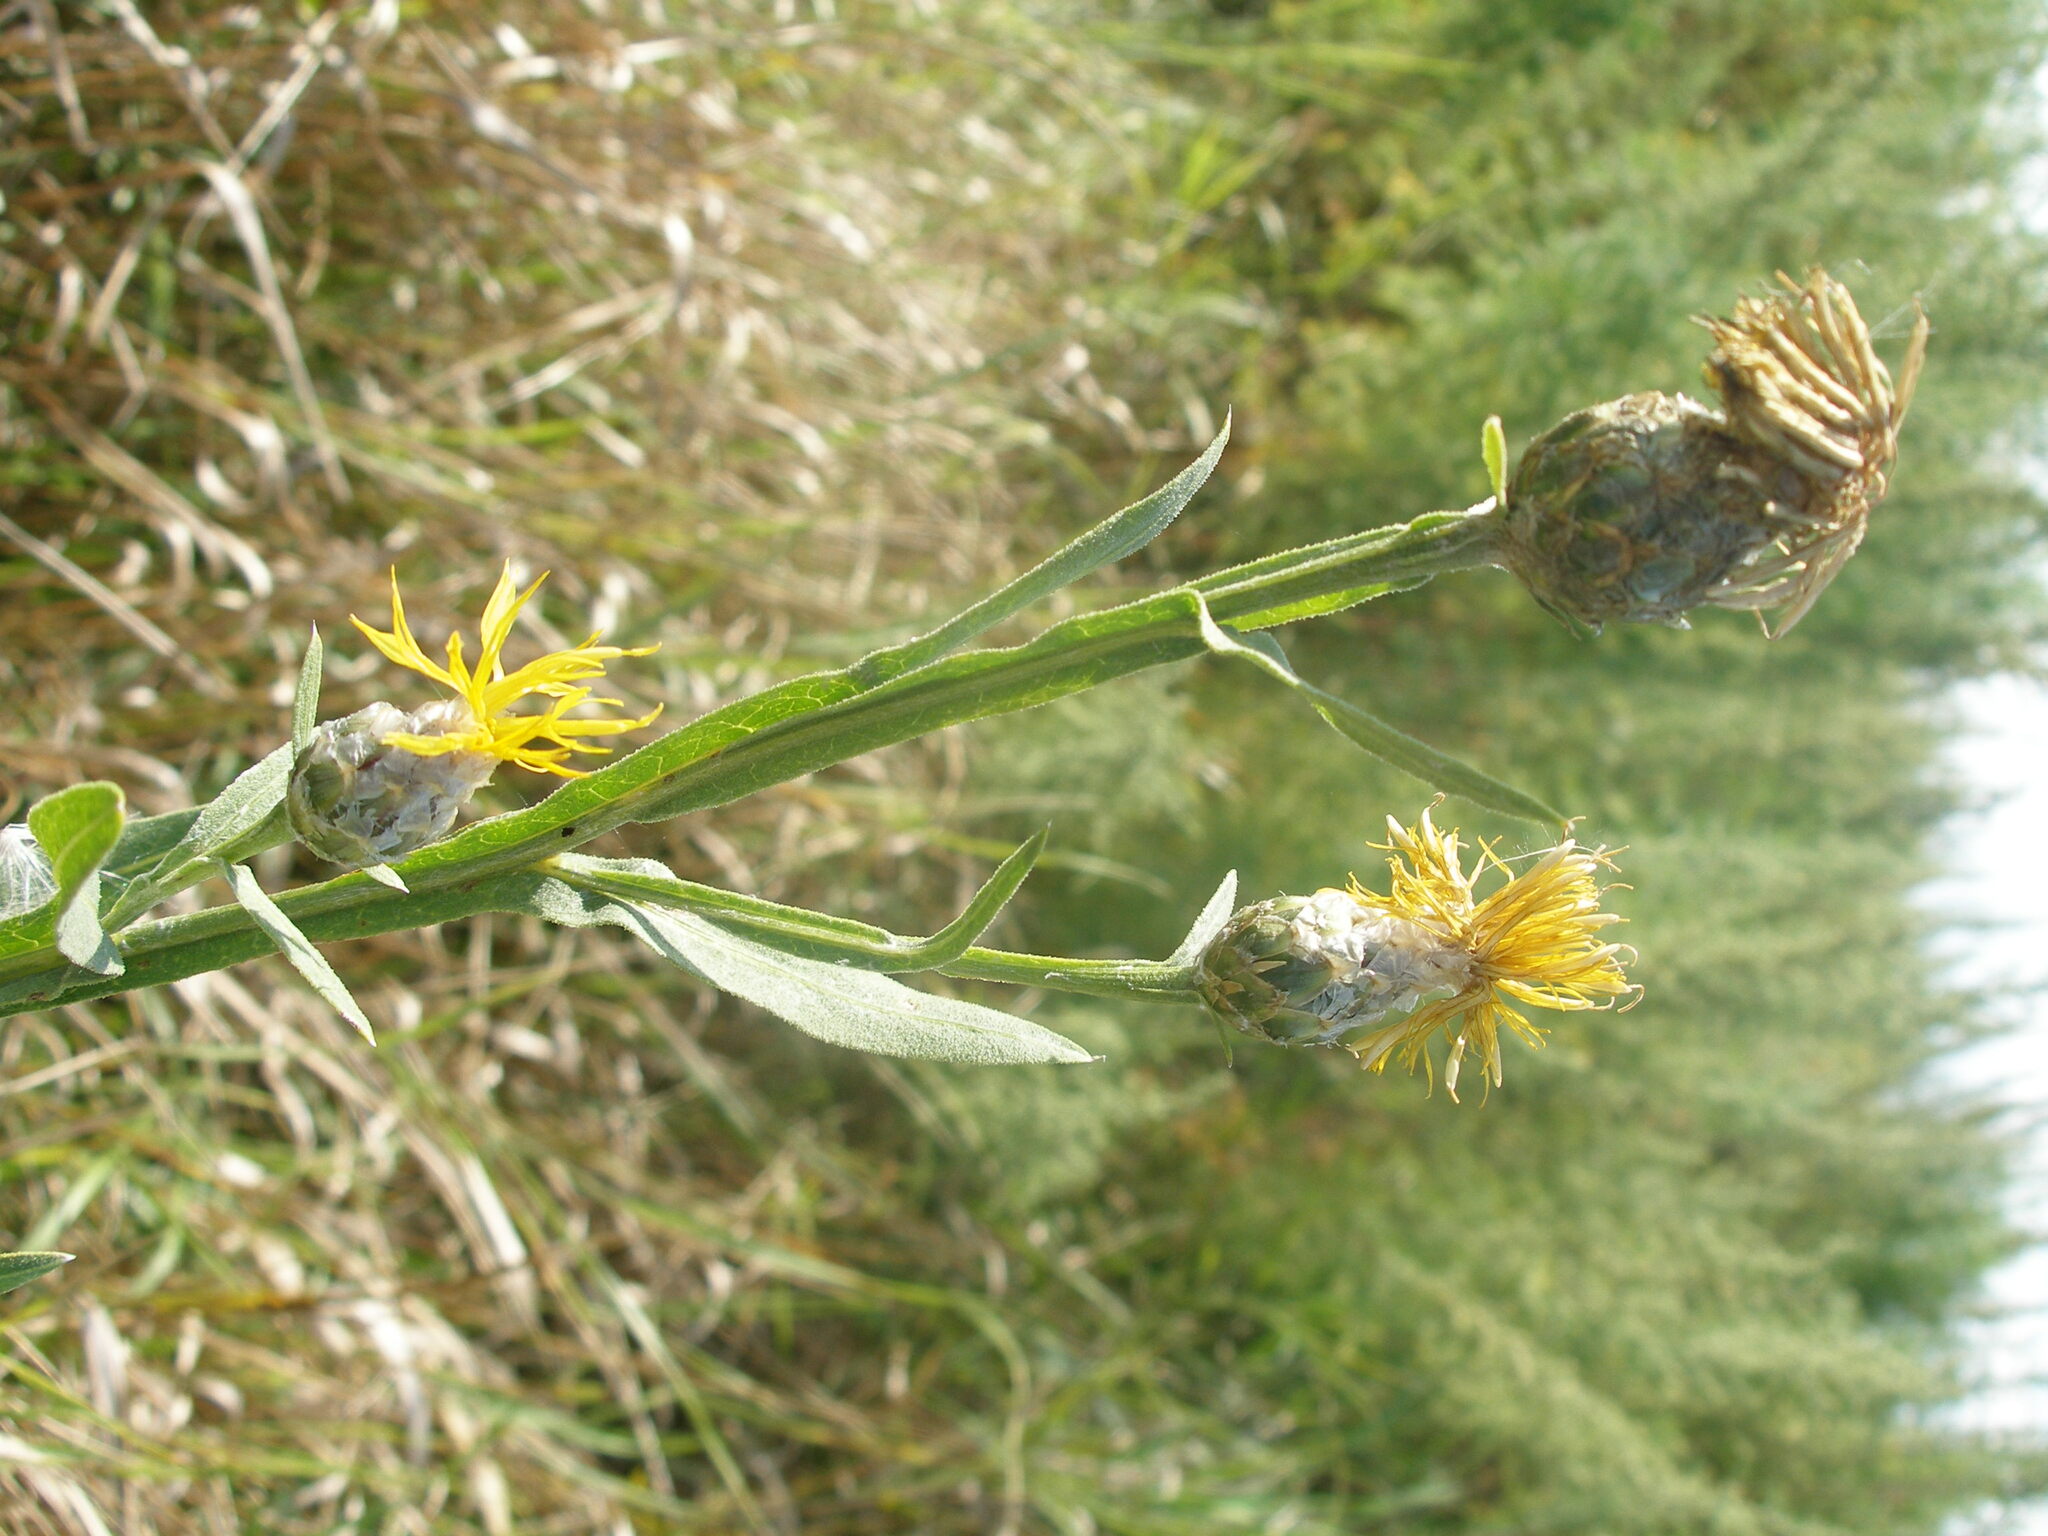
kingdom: Plantae
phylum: Tracheophyta
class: Magnoliopsida
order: Asterales
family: Asteraceae
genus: Centaurea
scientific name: Centaurea glastifolia
